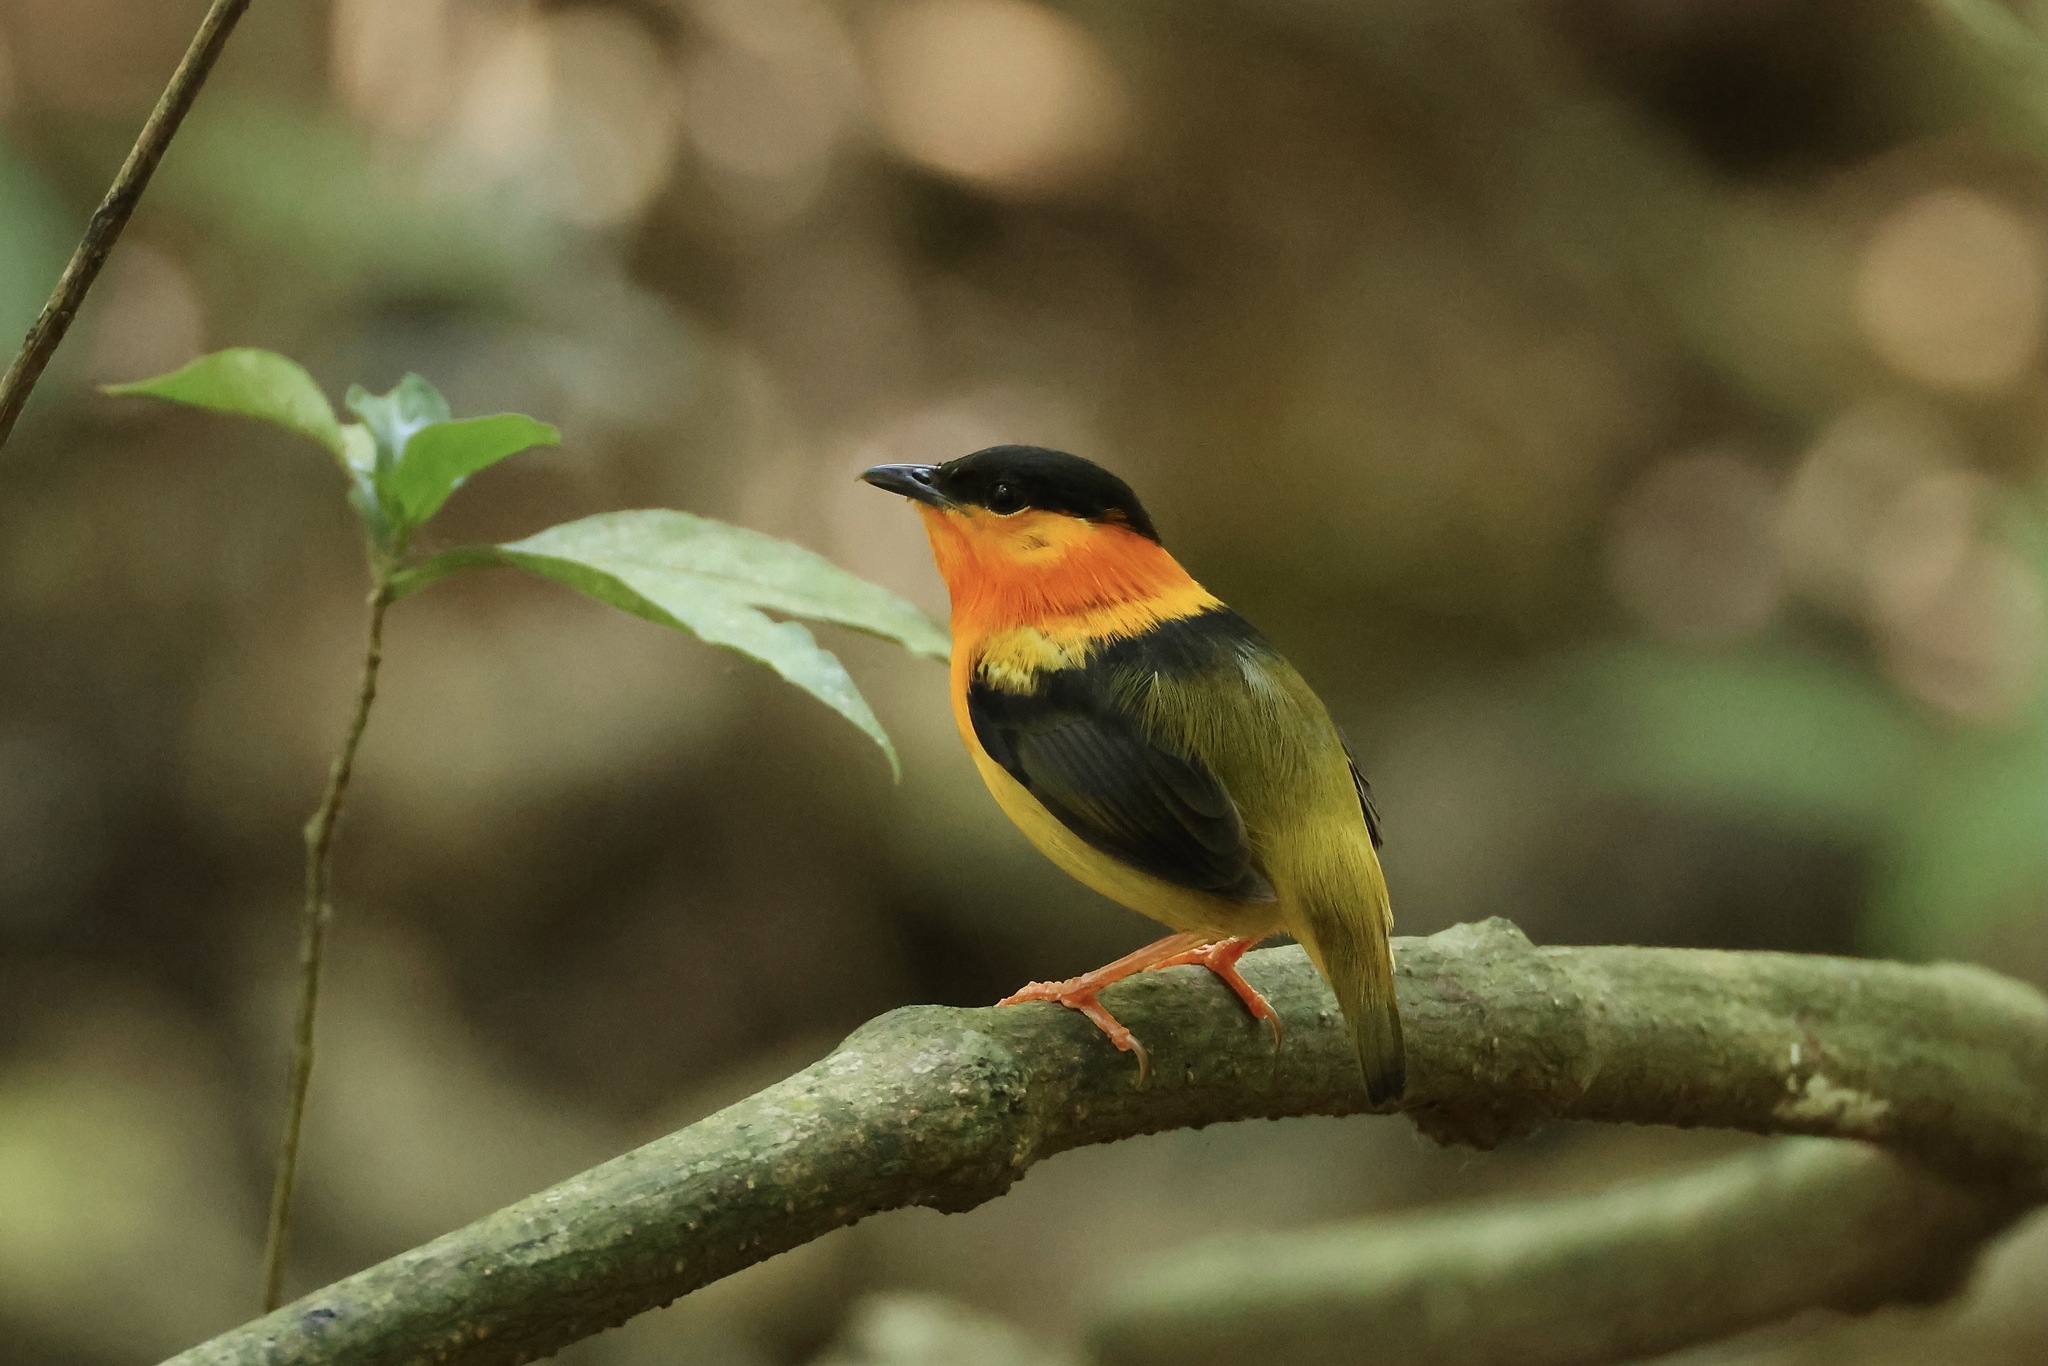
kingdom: Animalia
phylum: Chordata
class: Aves
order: Passeriformes
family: Pipridae
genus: Manacus
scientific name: Manacus aurantiacus
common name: Orange-collared manakin
